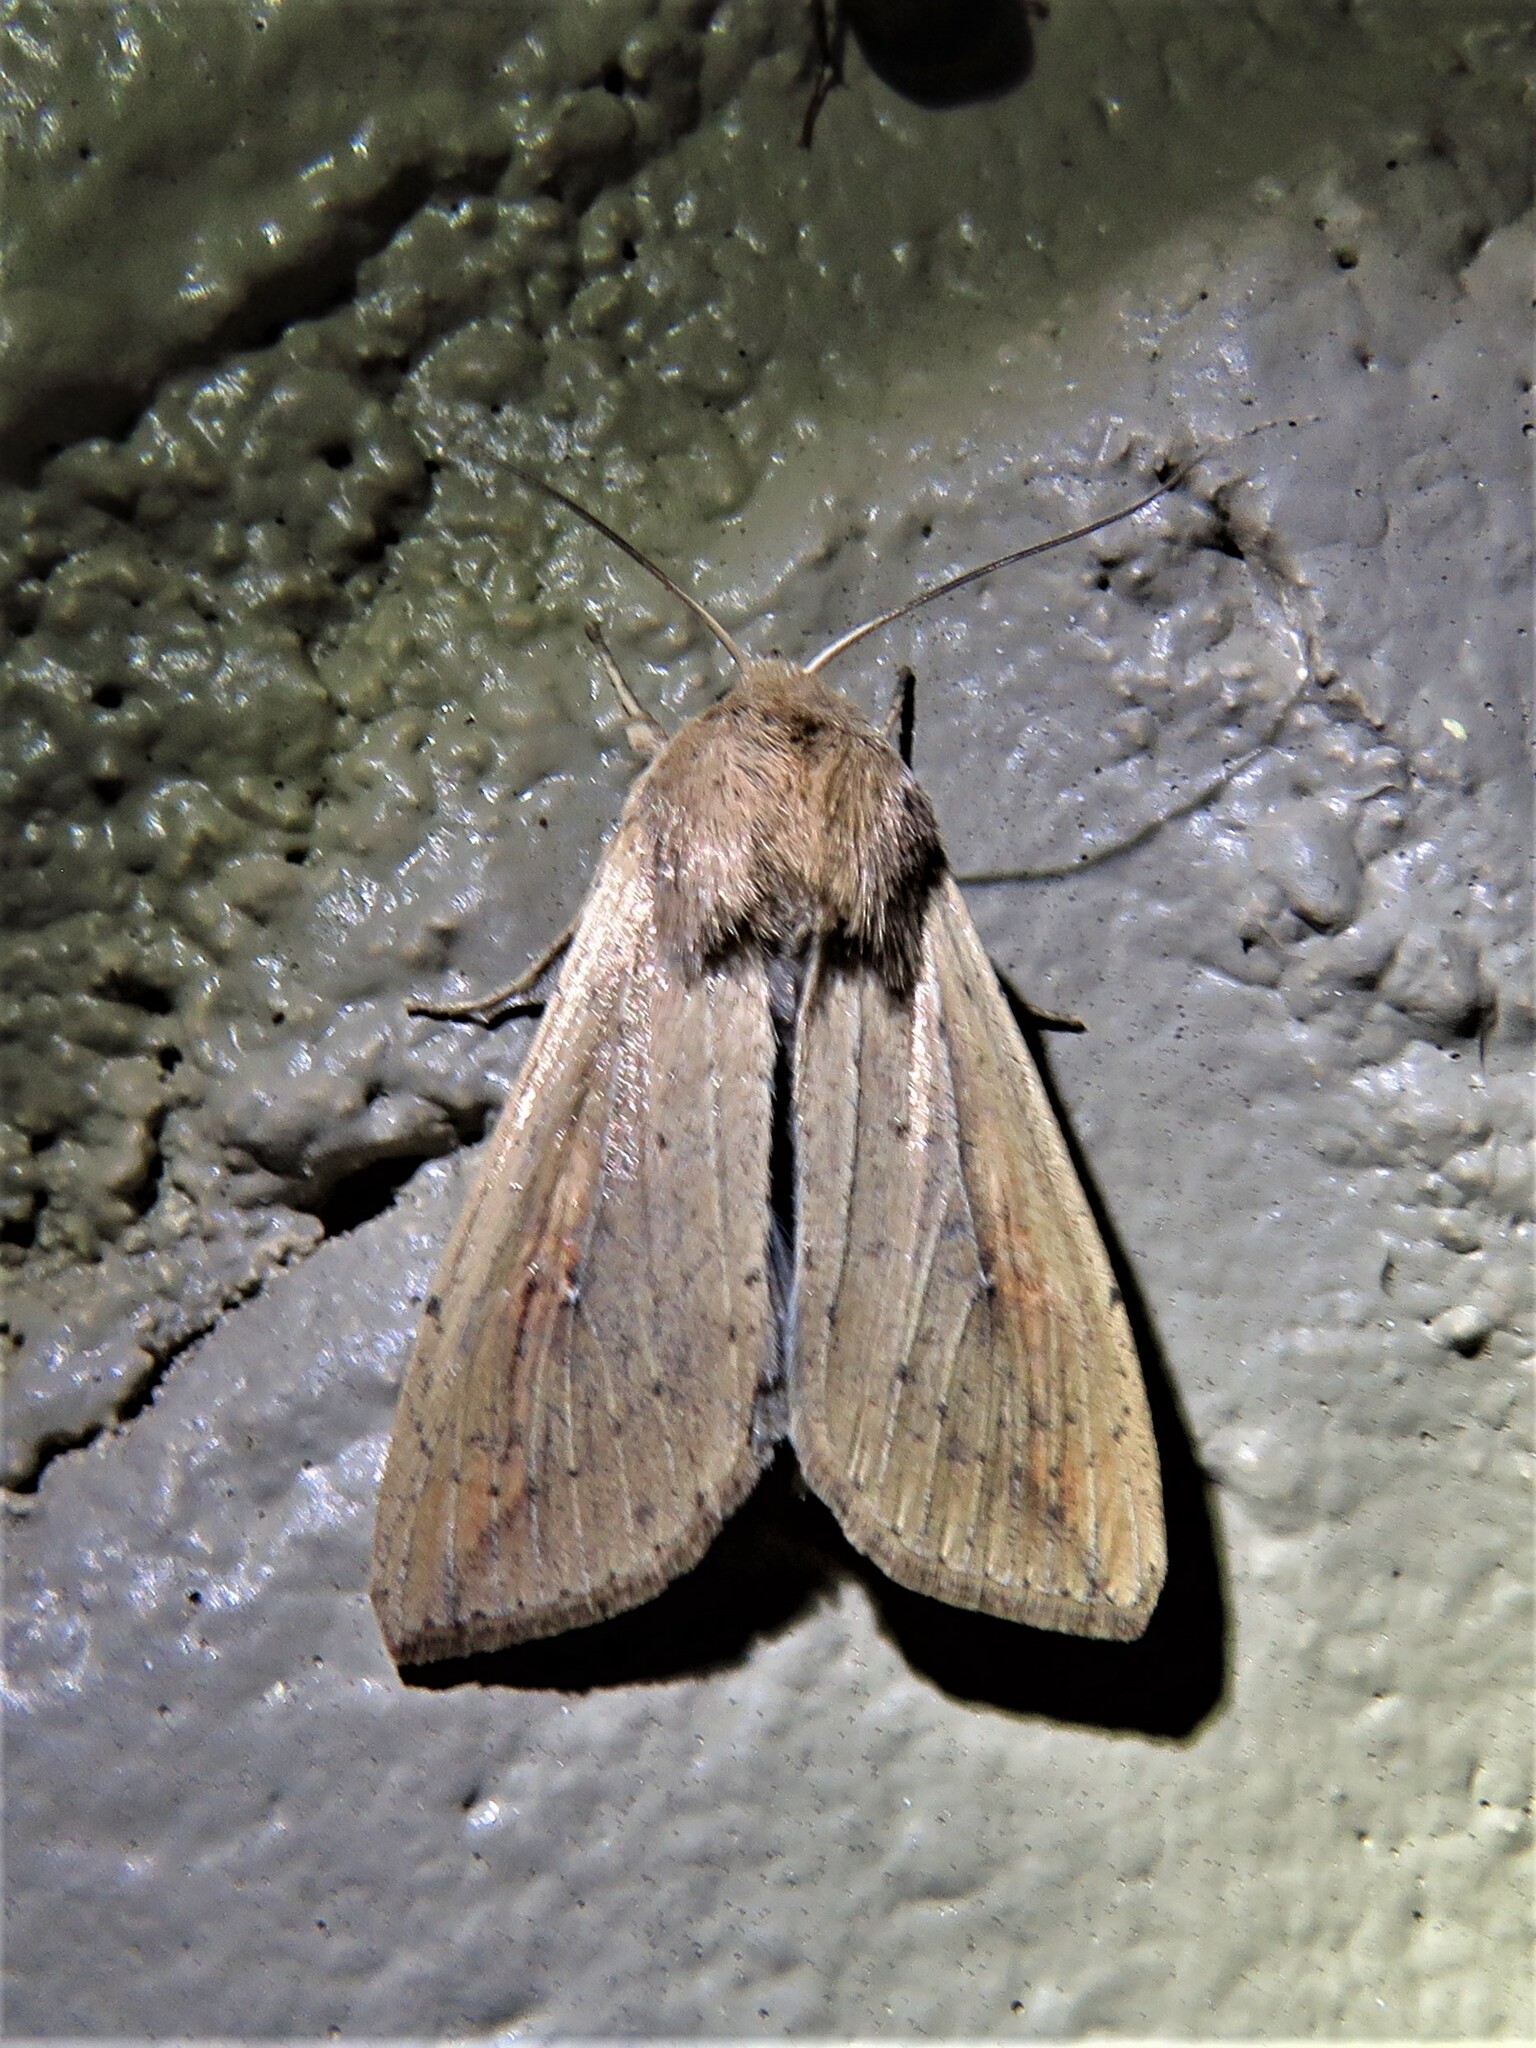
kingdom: Animalia
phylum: Arthropoda
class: Insecta
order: Lepidoptera
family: Noctuidae
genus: Mythimna
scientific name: Mythimna unipuncta
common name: White-speck
